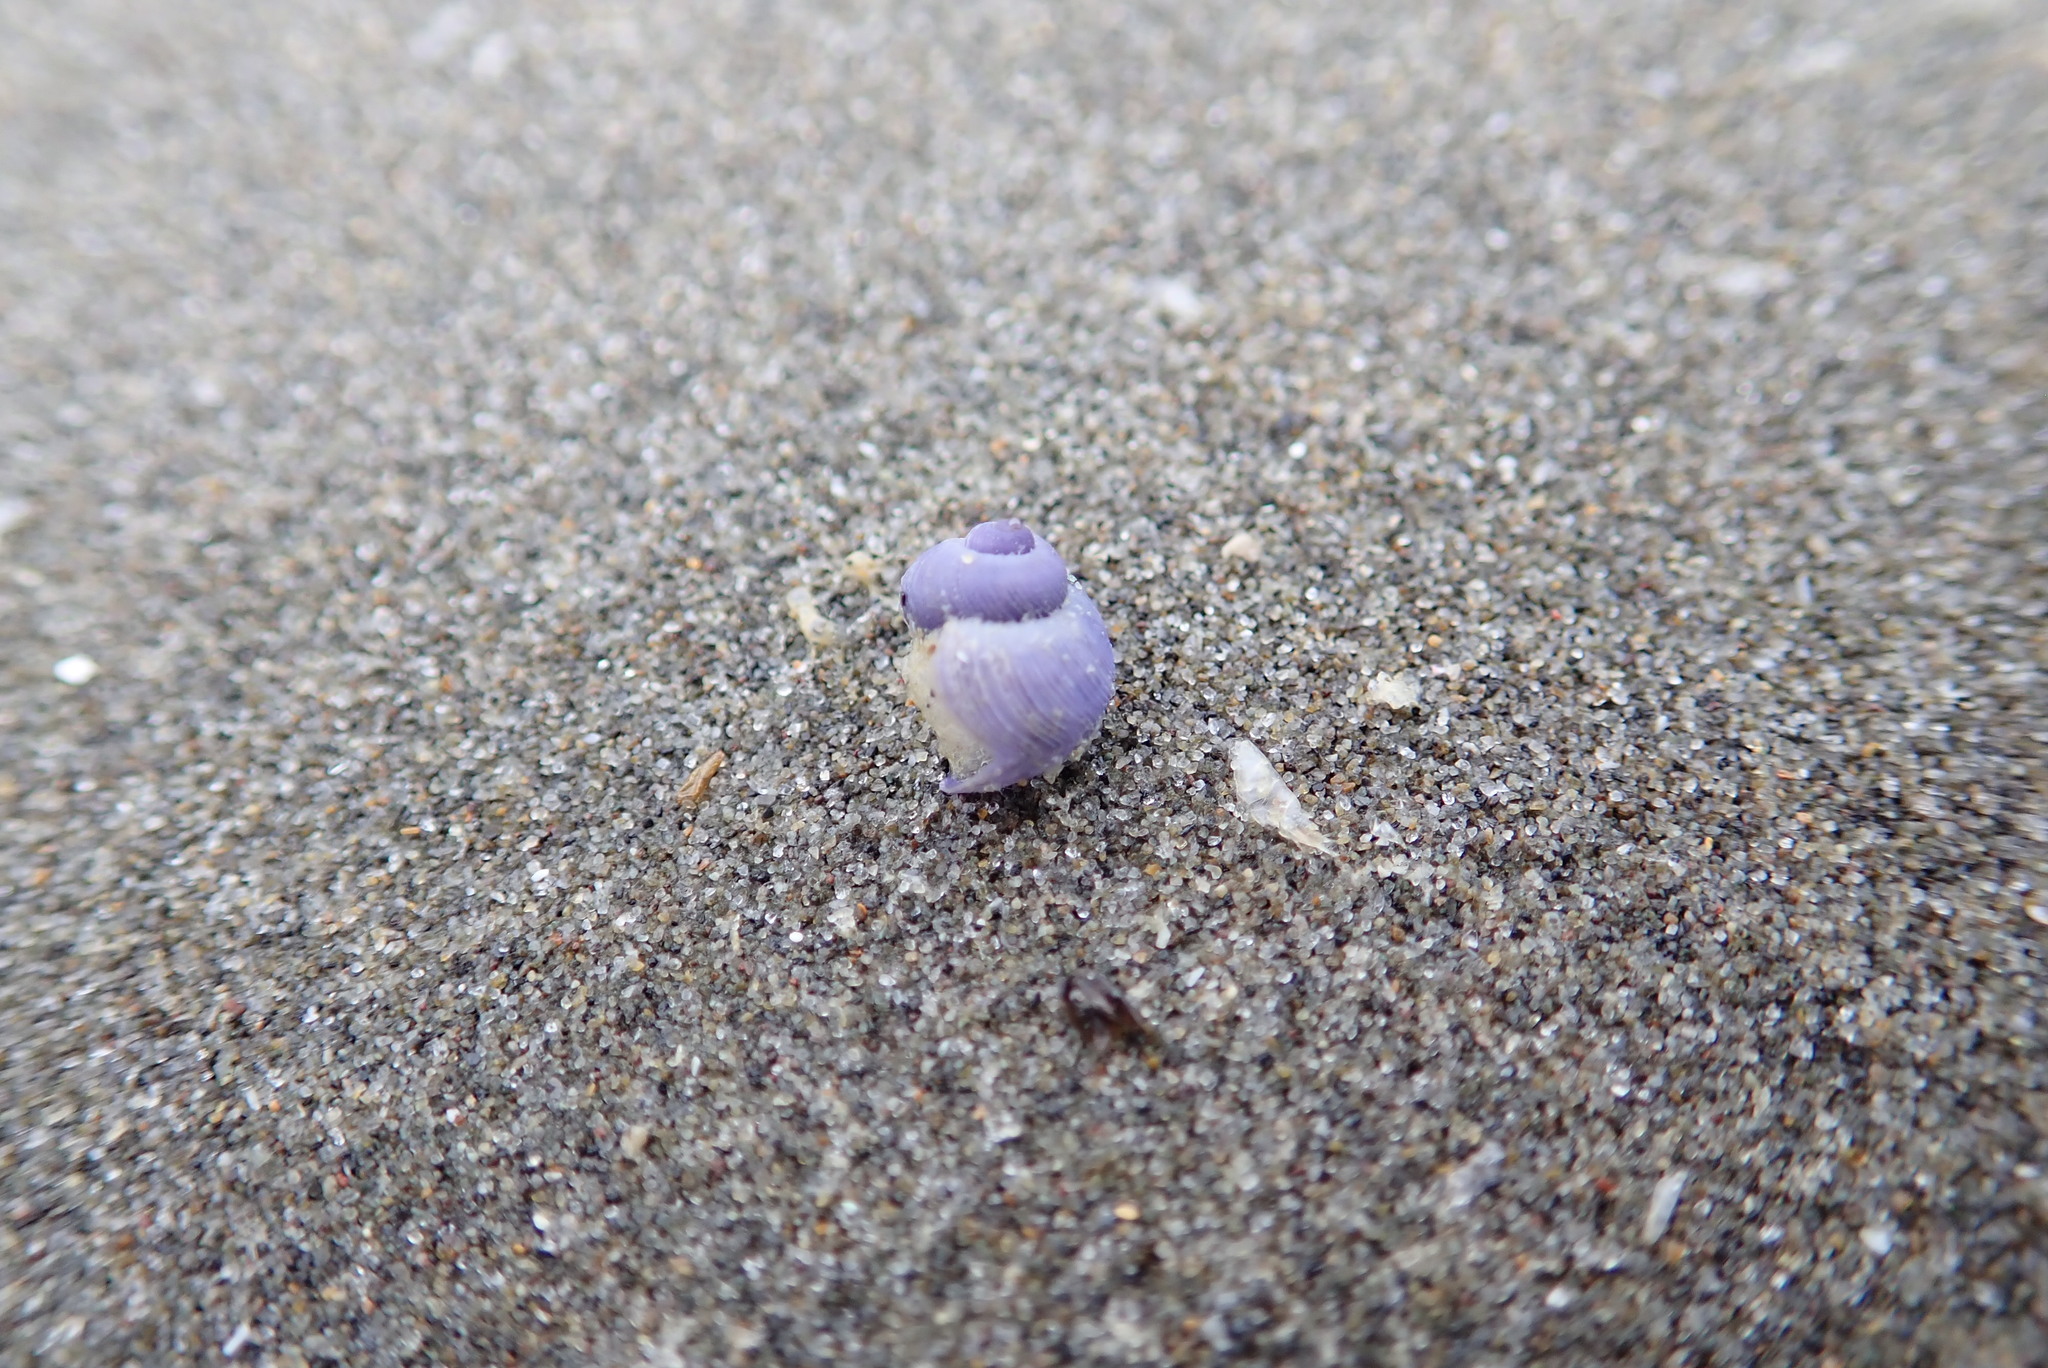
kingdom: Animalia
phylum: Mollusca
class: Gastropoda
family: Epitoniidae
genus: Janthina
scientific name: Janthina exigua
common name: Dwarf janthina
